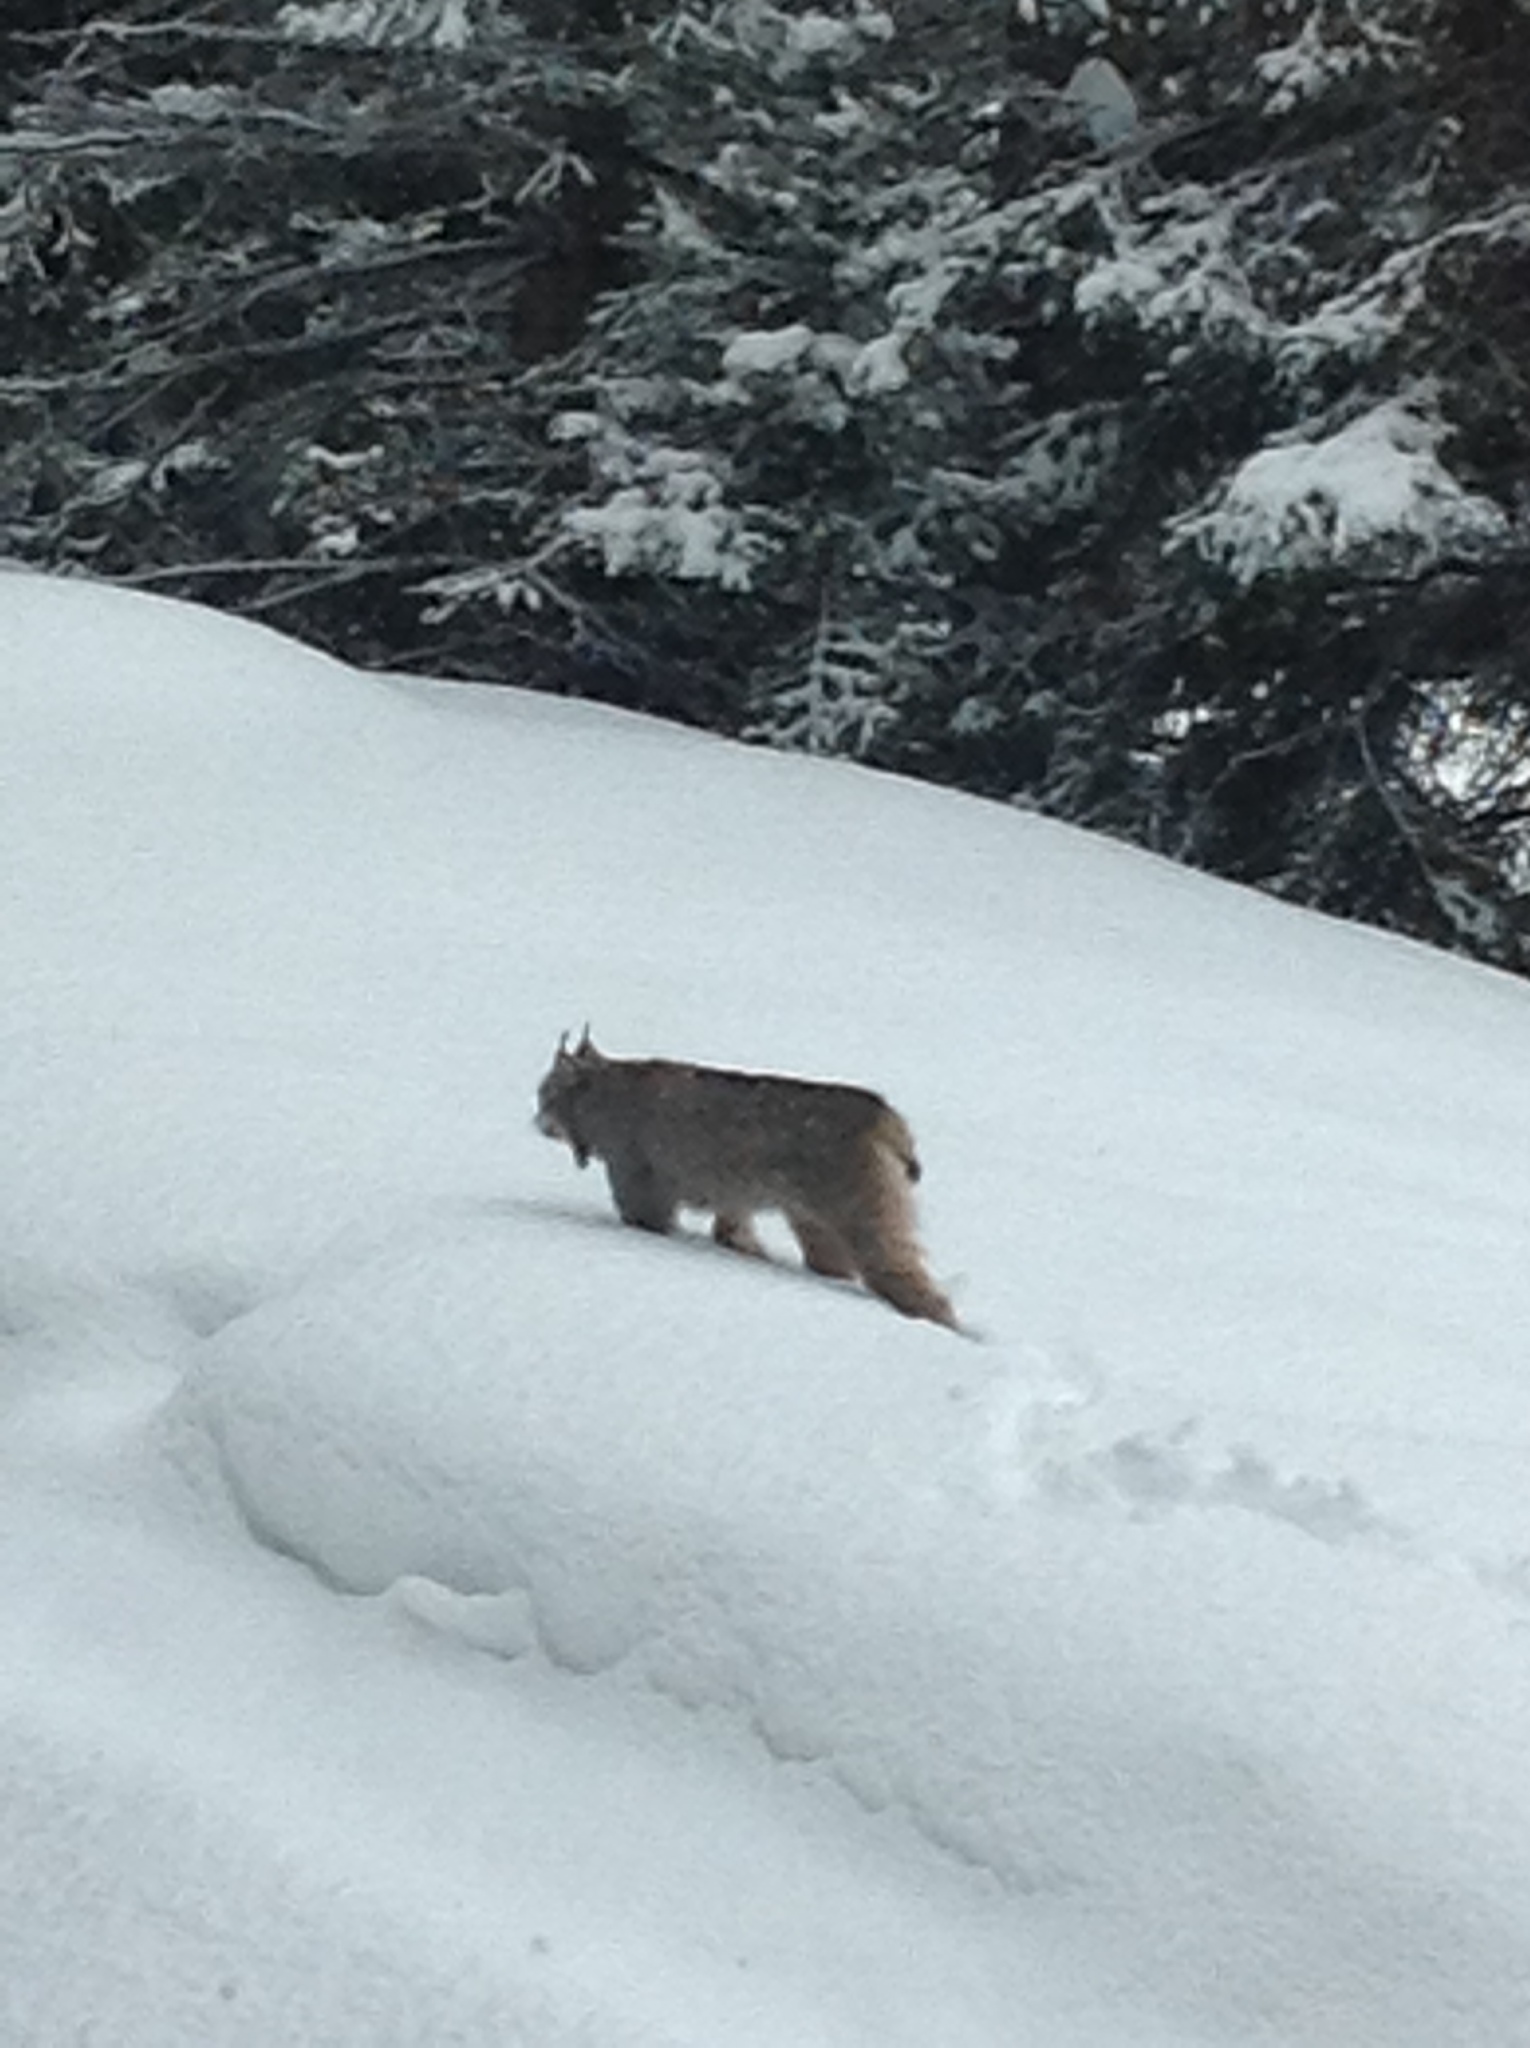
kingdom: Animalia
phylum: Chordata
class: Mammalia
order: Carnivora
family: Felidae
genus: Lynx
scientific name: Lynx canadensis
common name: Canadian lynx
